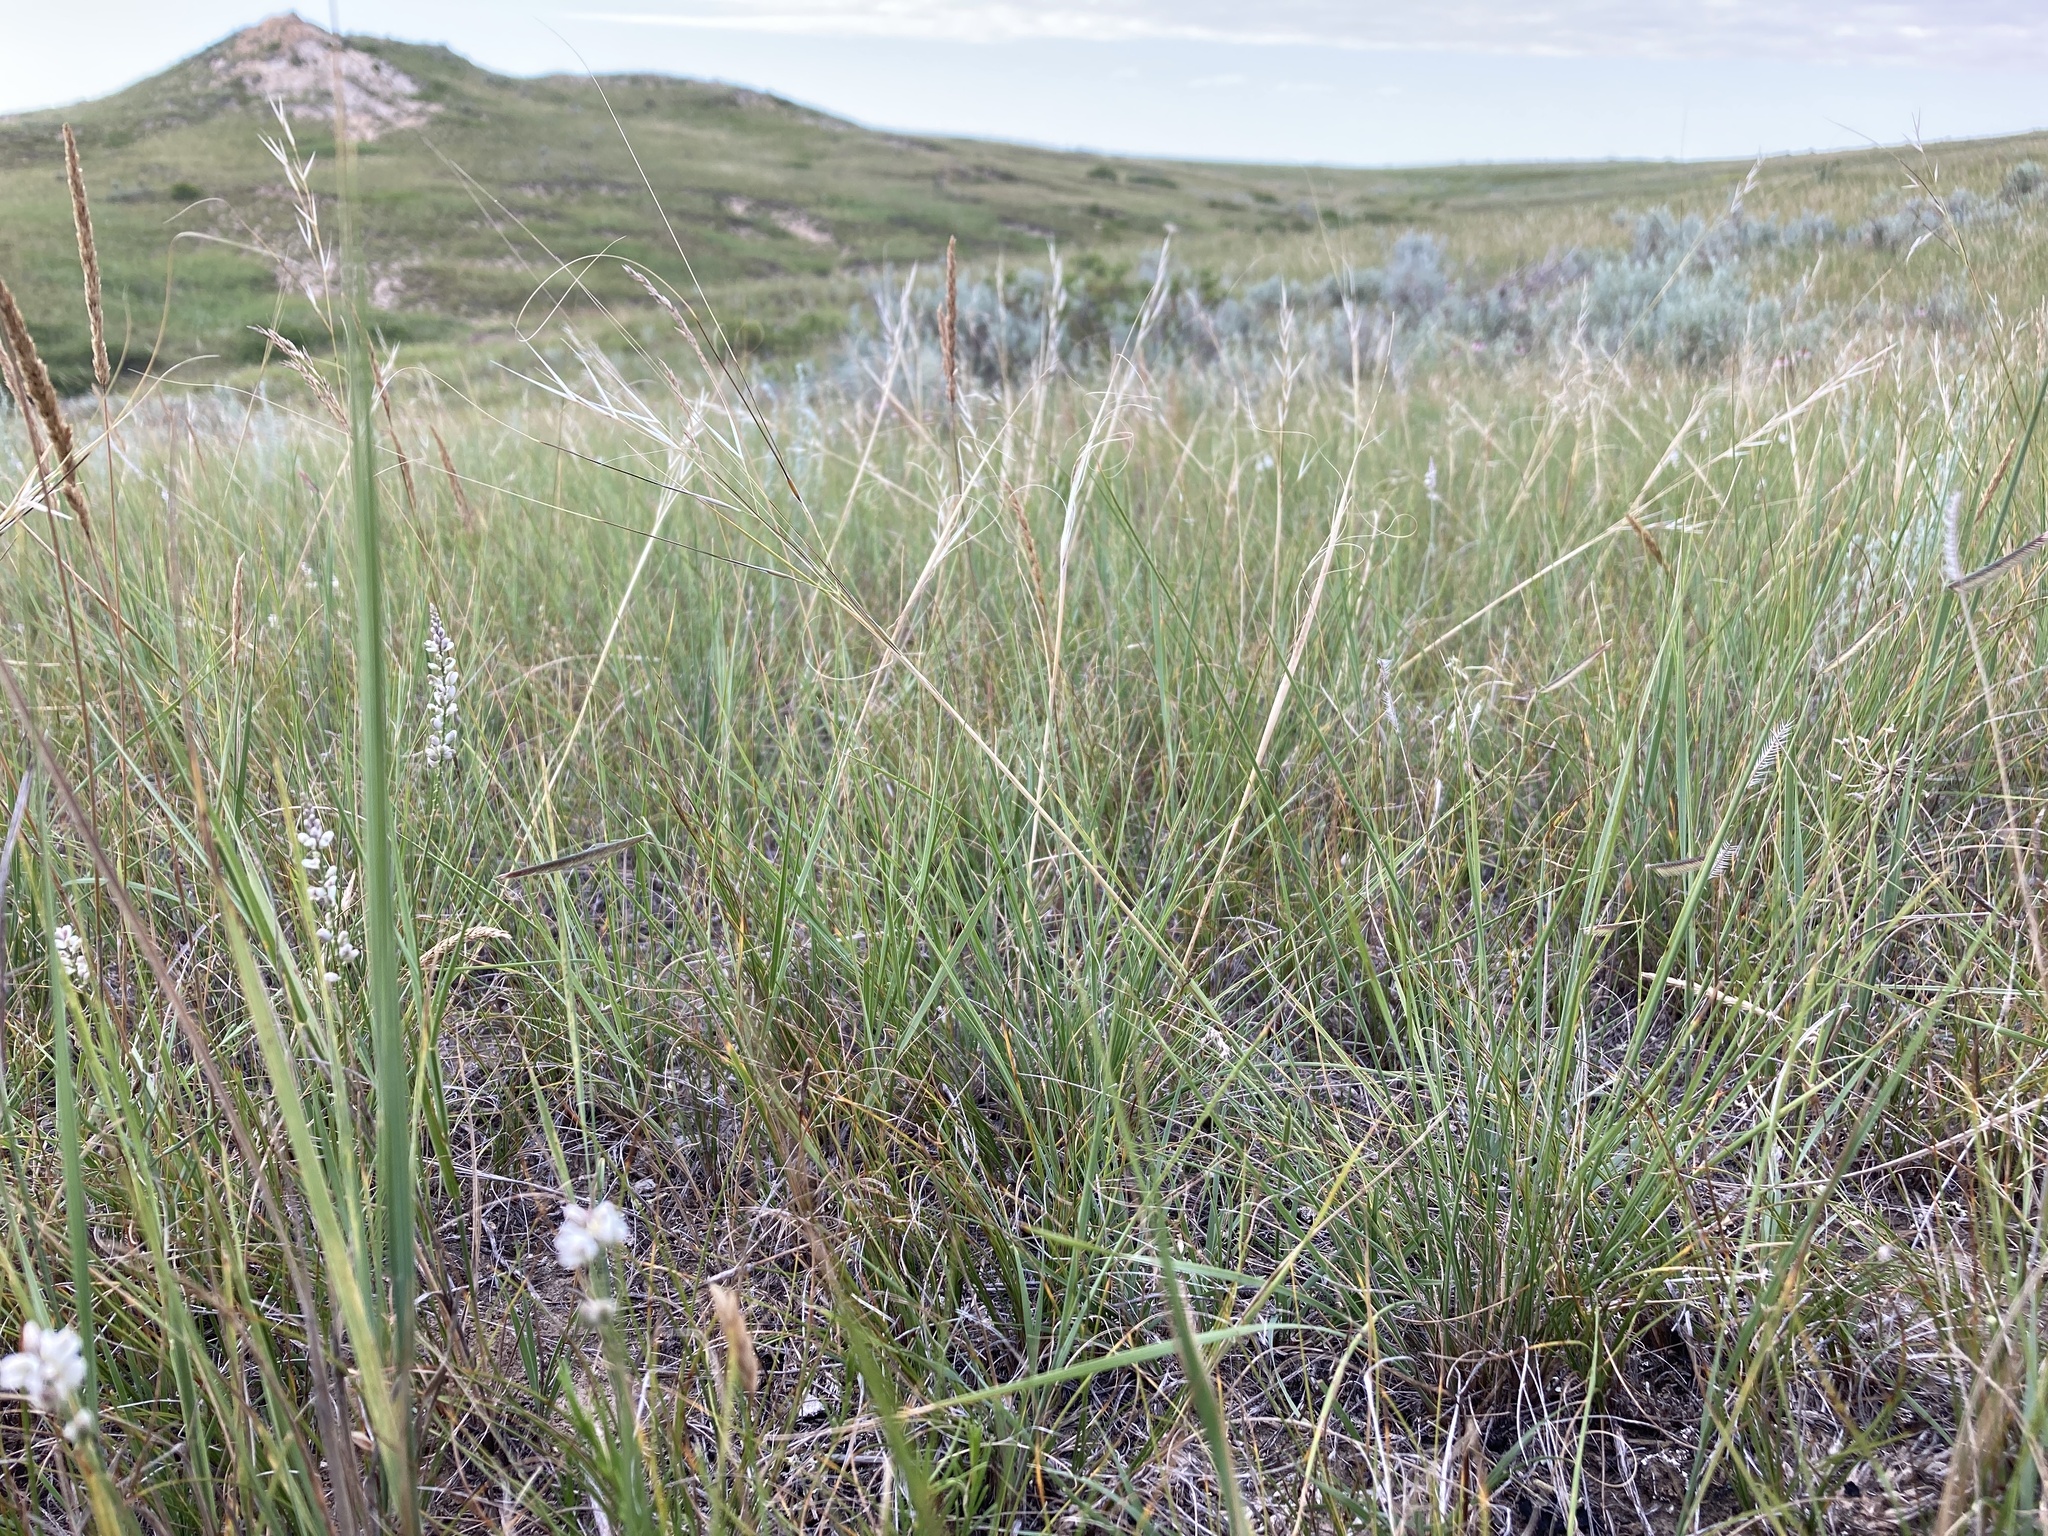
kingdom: Plantae
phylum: Tracheophyta
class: Liliopsida
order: Poales
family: Poaceae
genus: Hesperostipa
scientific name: Hesperostipa comata
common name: Needle-and-thread grass
